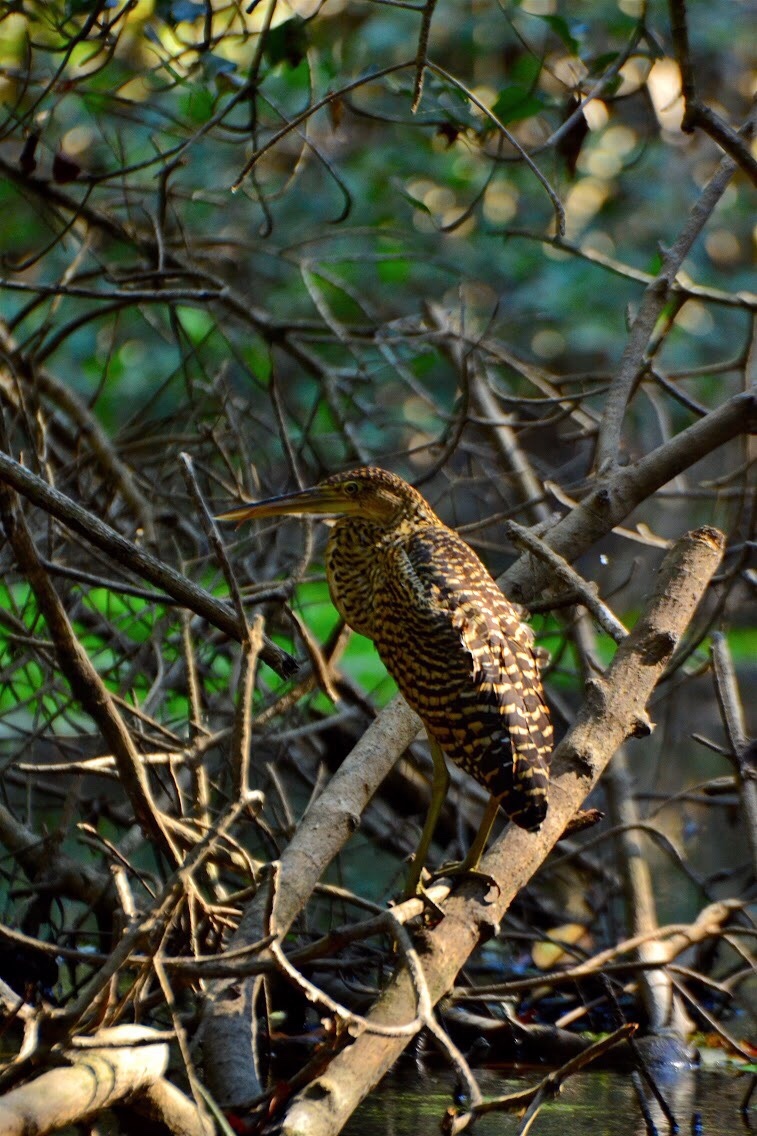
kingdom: Animalia
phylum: Chordata
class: Aves
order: Pelecaniformes
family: Ardeidae
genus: Tigrisoma
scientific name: Tigrisoma mexicanum
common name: Bare-throated tiger-heron
